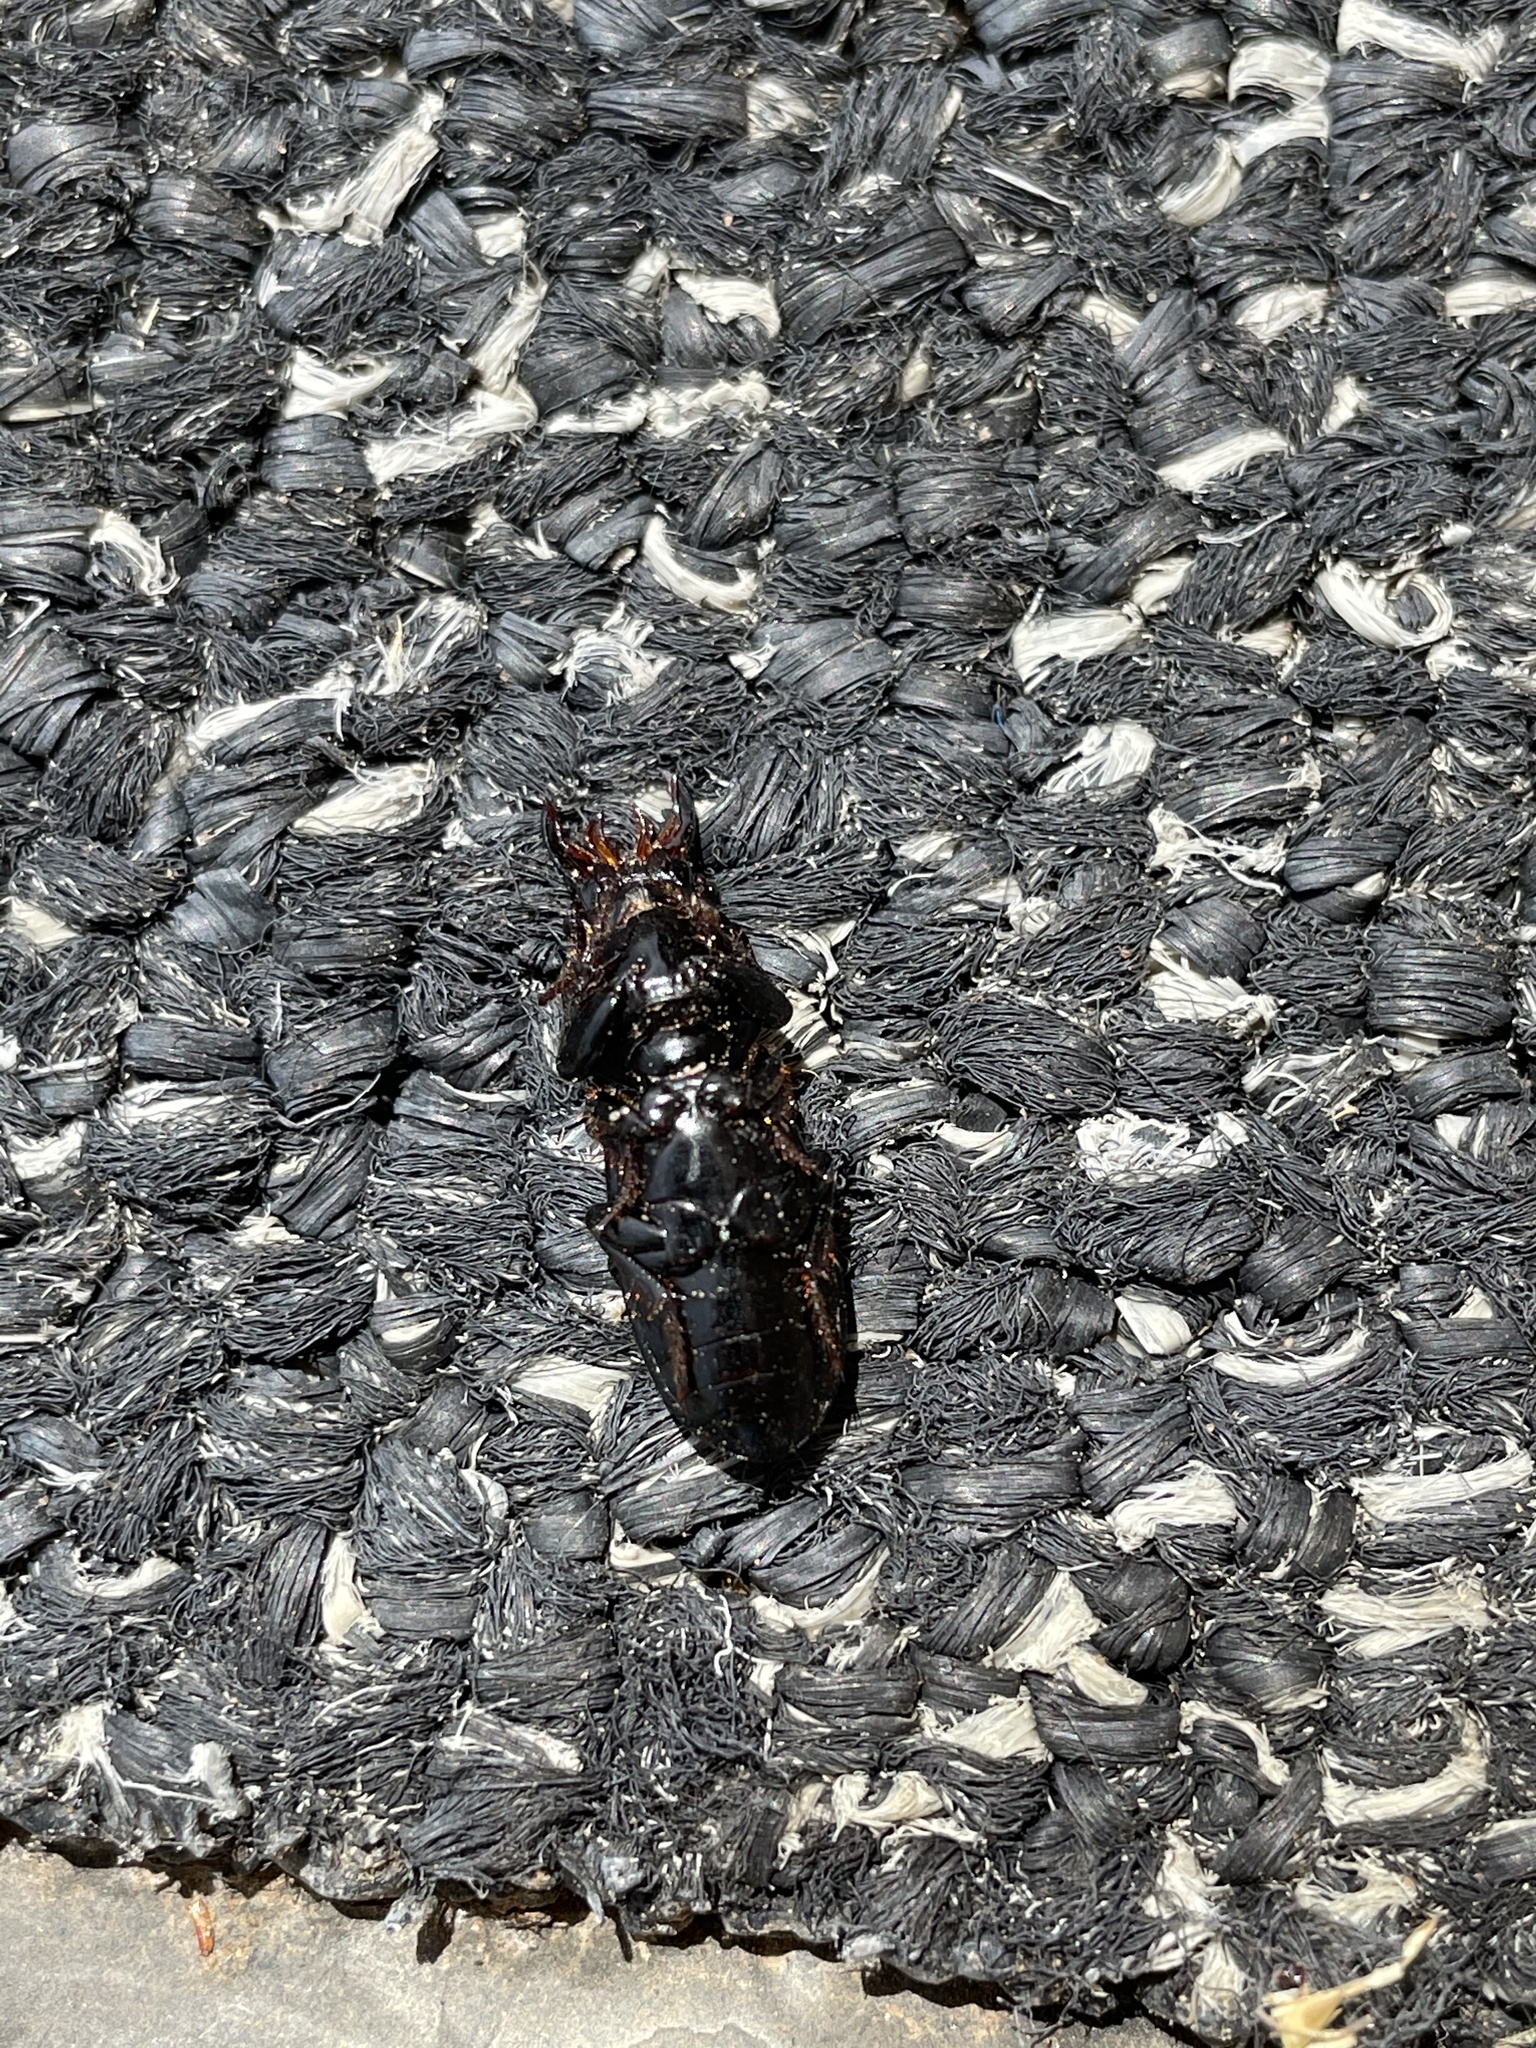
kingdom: Animalia
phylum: Arthropoda
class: Insecta
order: Coleoptera
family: Carabidae
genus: Scarites
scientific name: Scarites subterraneus
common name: Big-headed ground beetle
